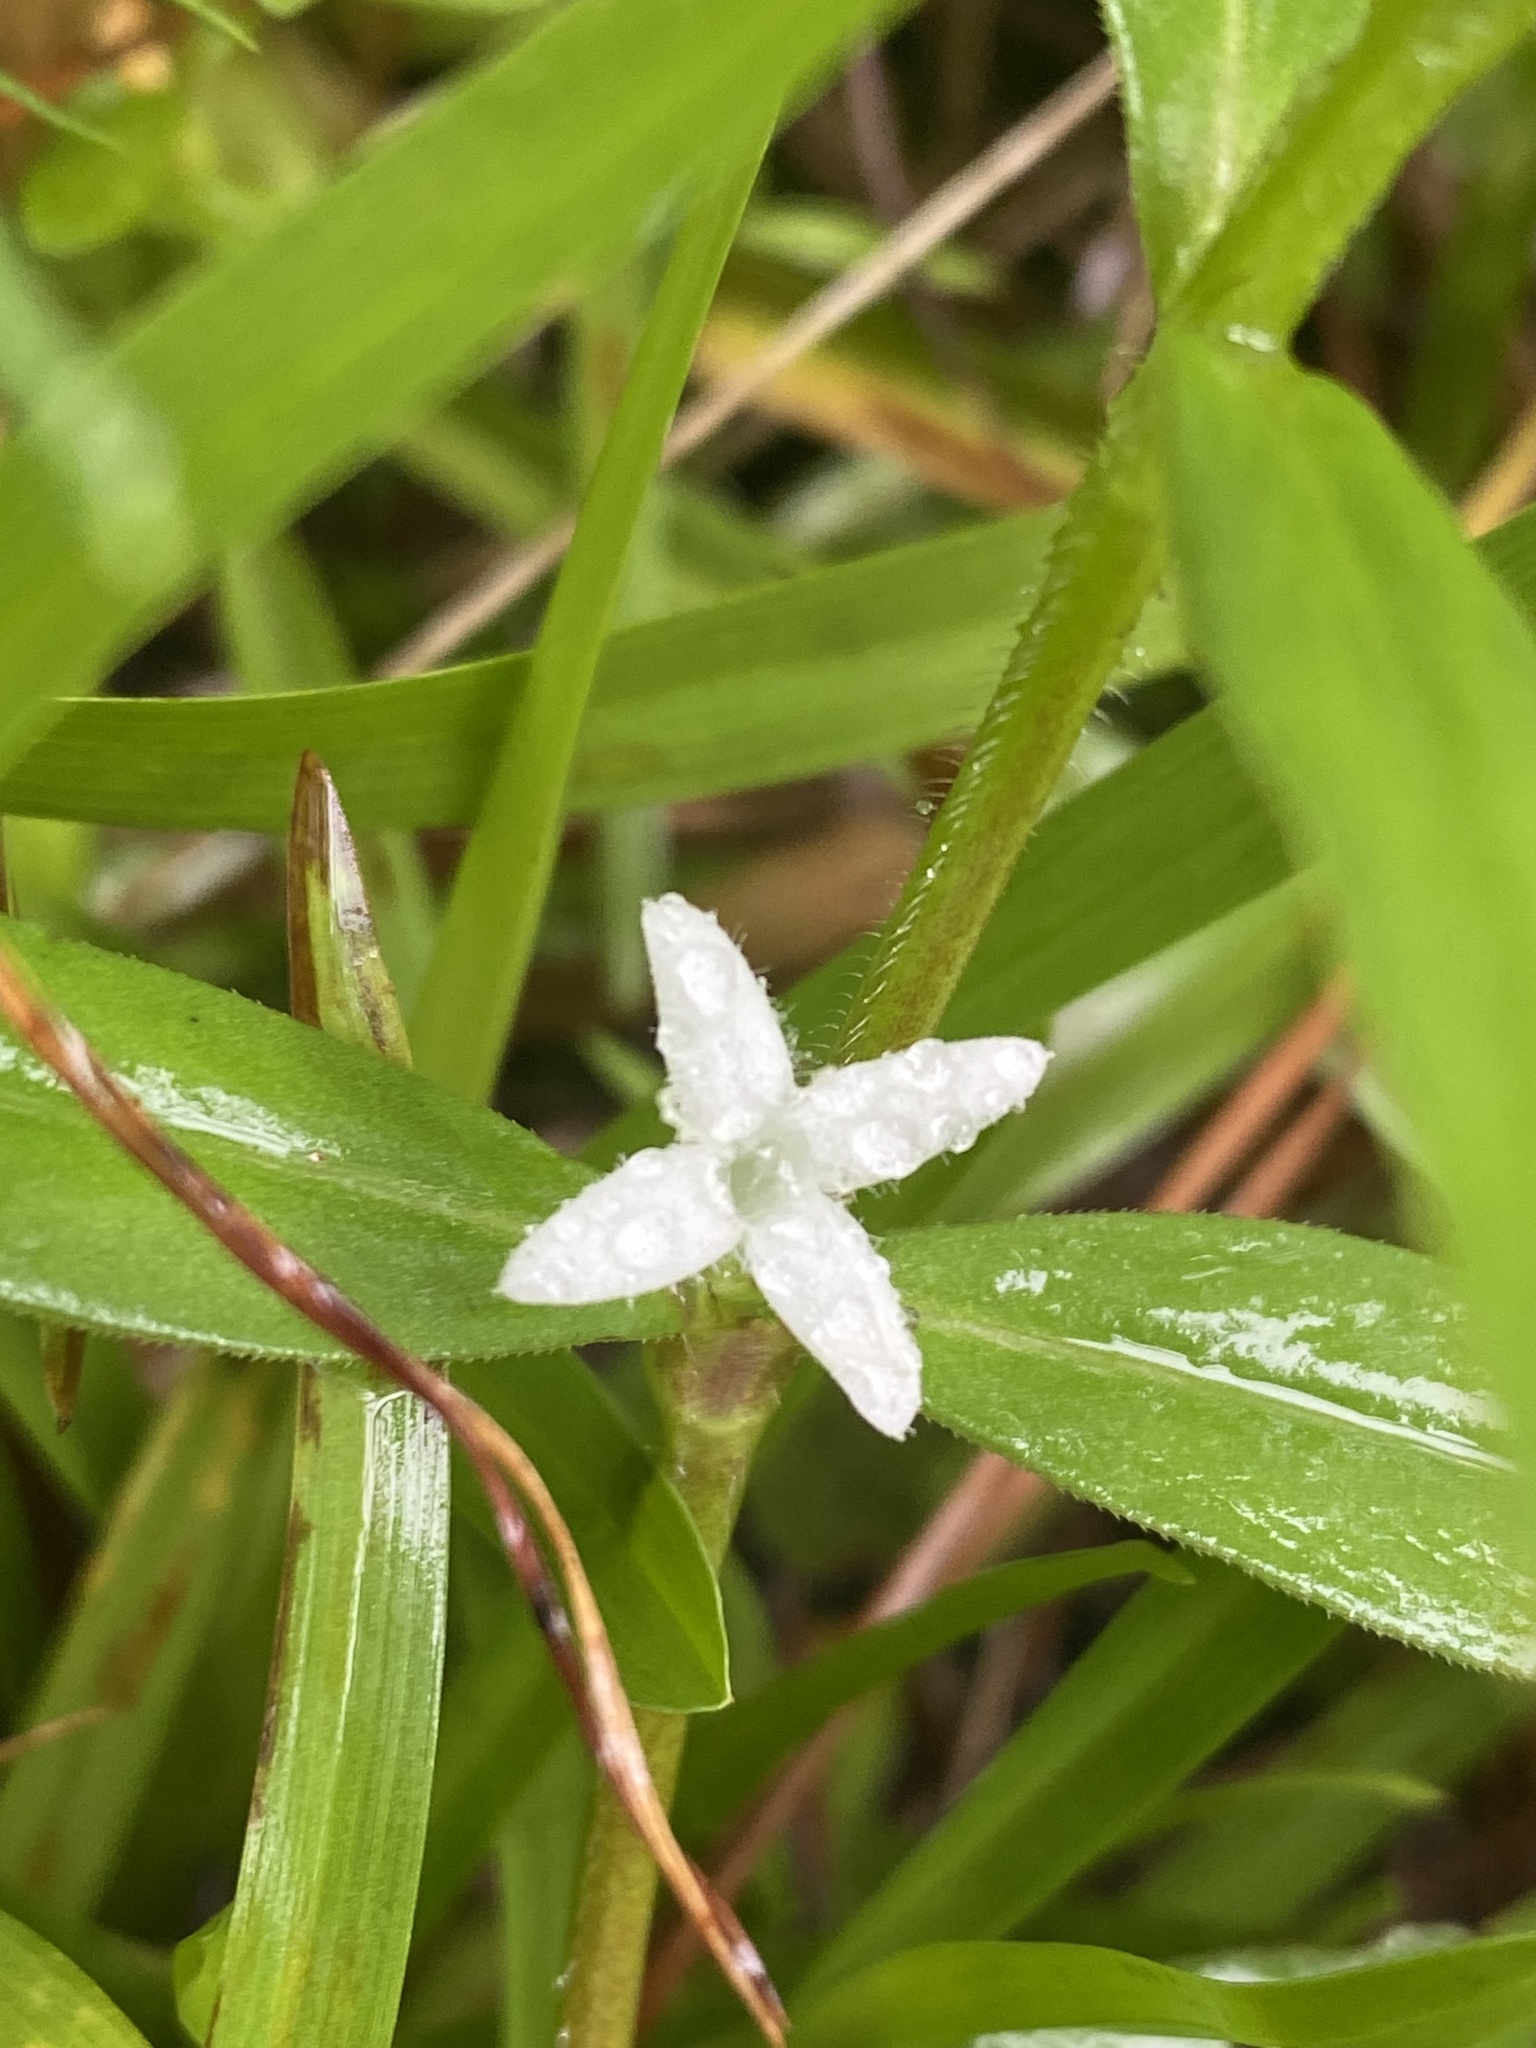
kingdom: Plantae
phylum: Tracheophyta
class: Magnoliopsida
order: Gentianales
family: Rubiaceae
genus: Diodia
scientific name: Diodia virginiana
